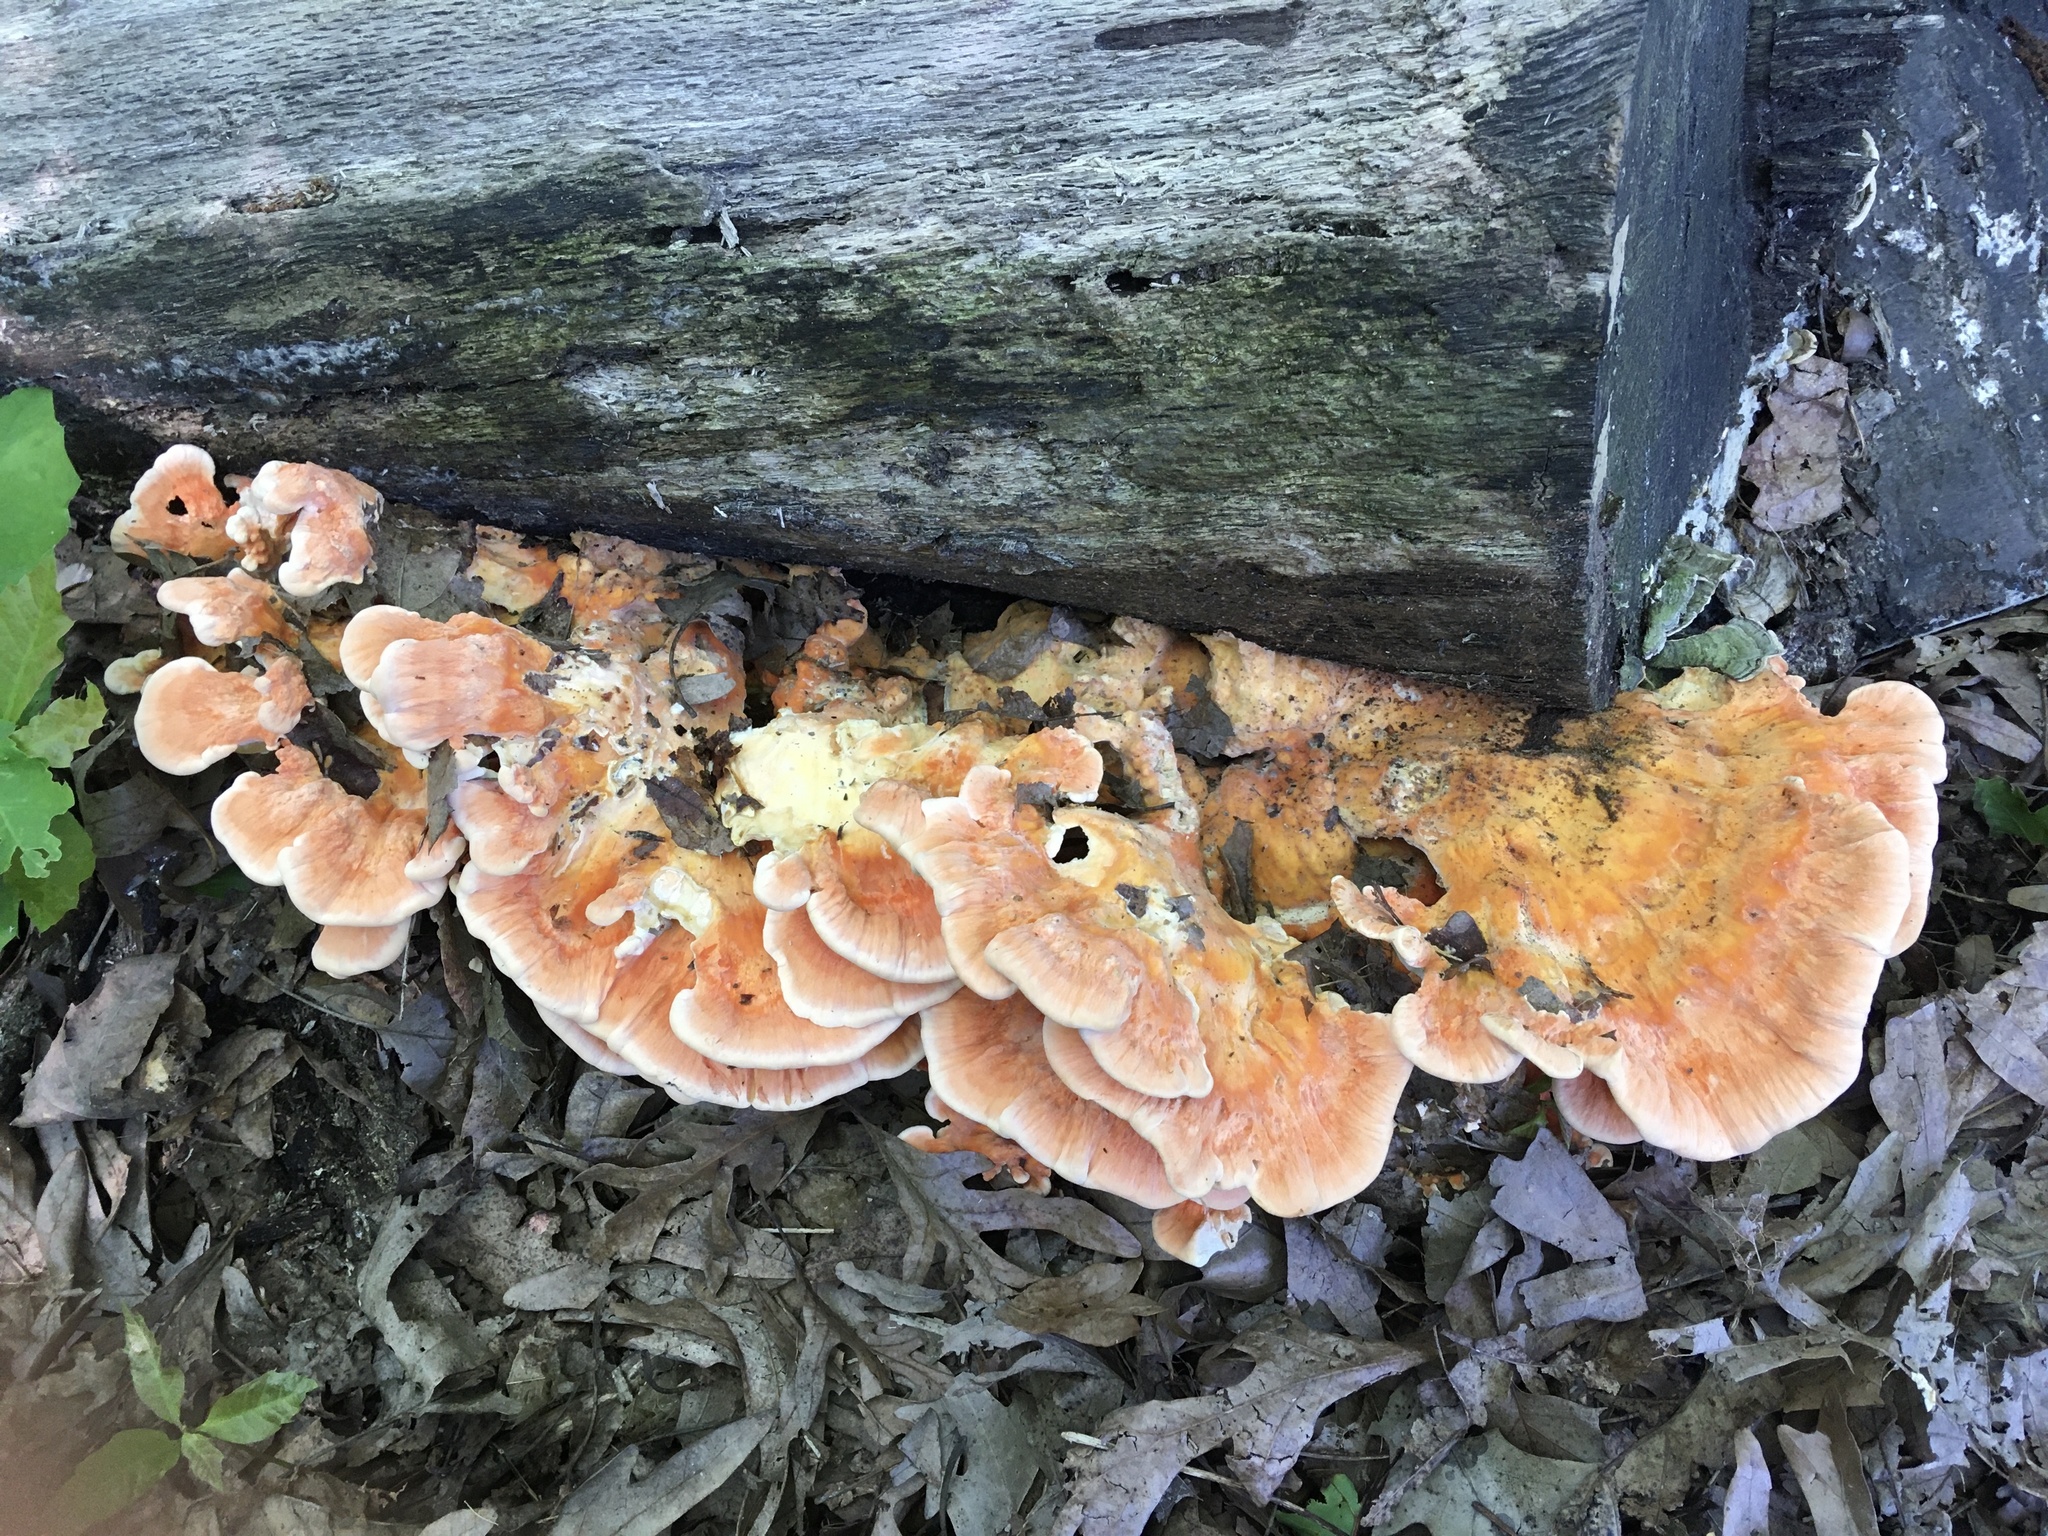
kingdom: Fungi
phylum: Basidiomycota
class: Agaricomycetes
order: Polyporales
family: Laetiporaceae
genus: Laetiporus
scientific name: Laetiporus sulphureus
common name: Chicken of the woods
